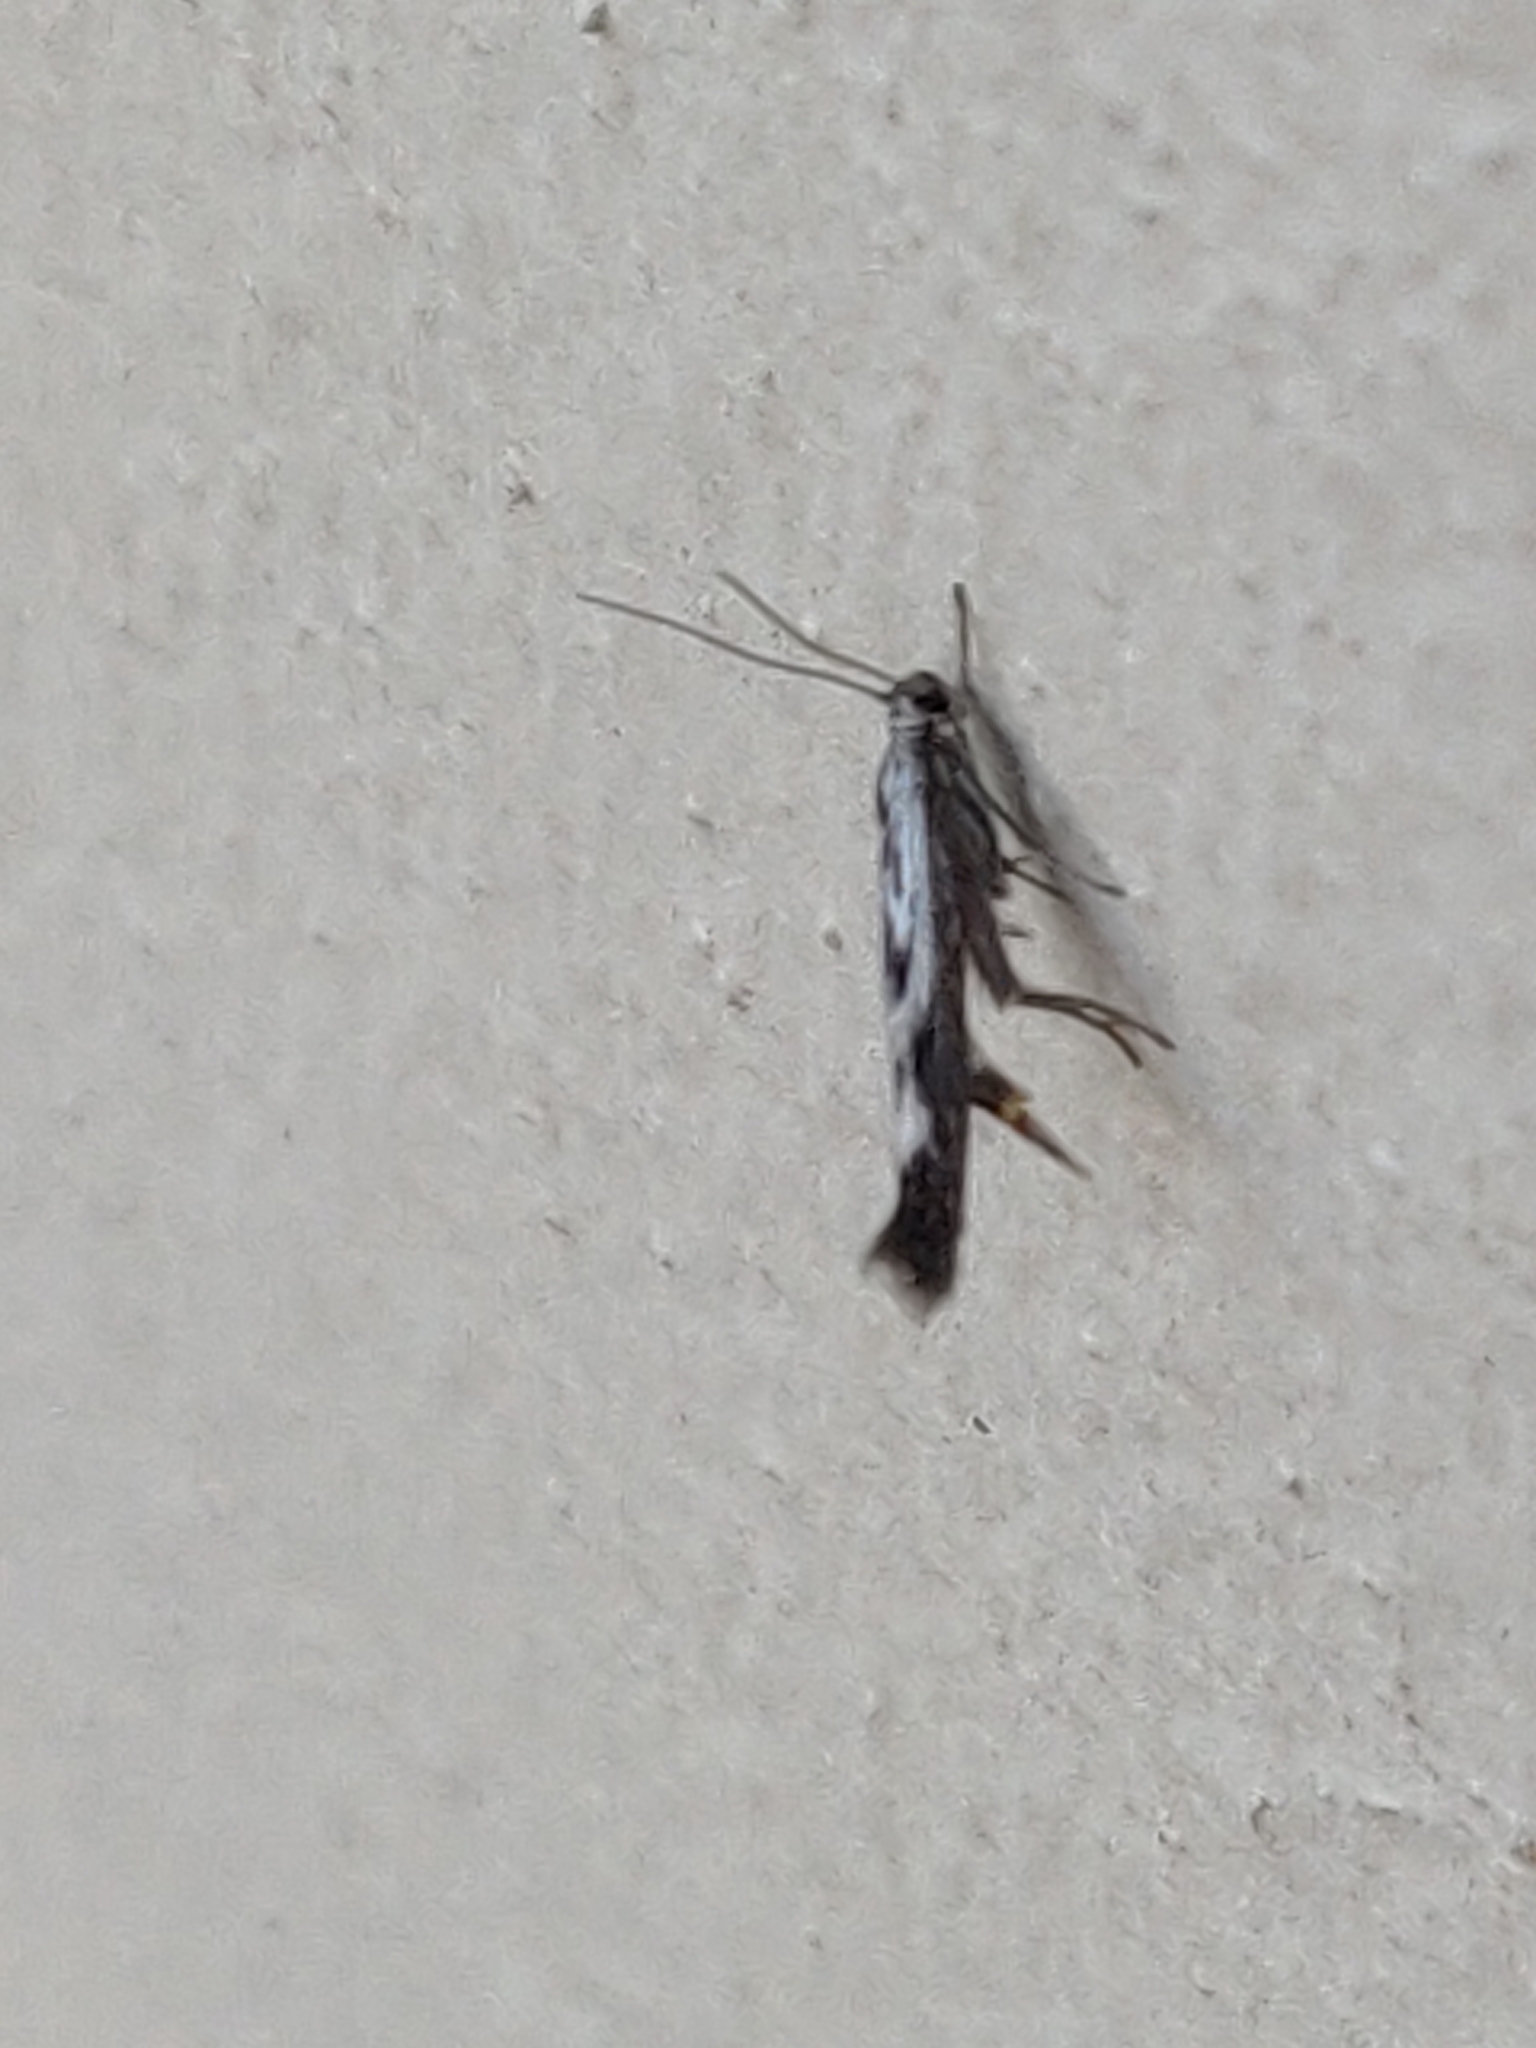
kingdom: Animalia
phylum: Arthropoda
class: Insecta
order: Lepidoptera
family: Scythrididae
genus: Scythris
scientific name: Scythris limbella
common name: Goosefoot owlet
